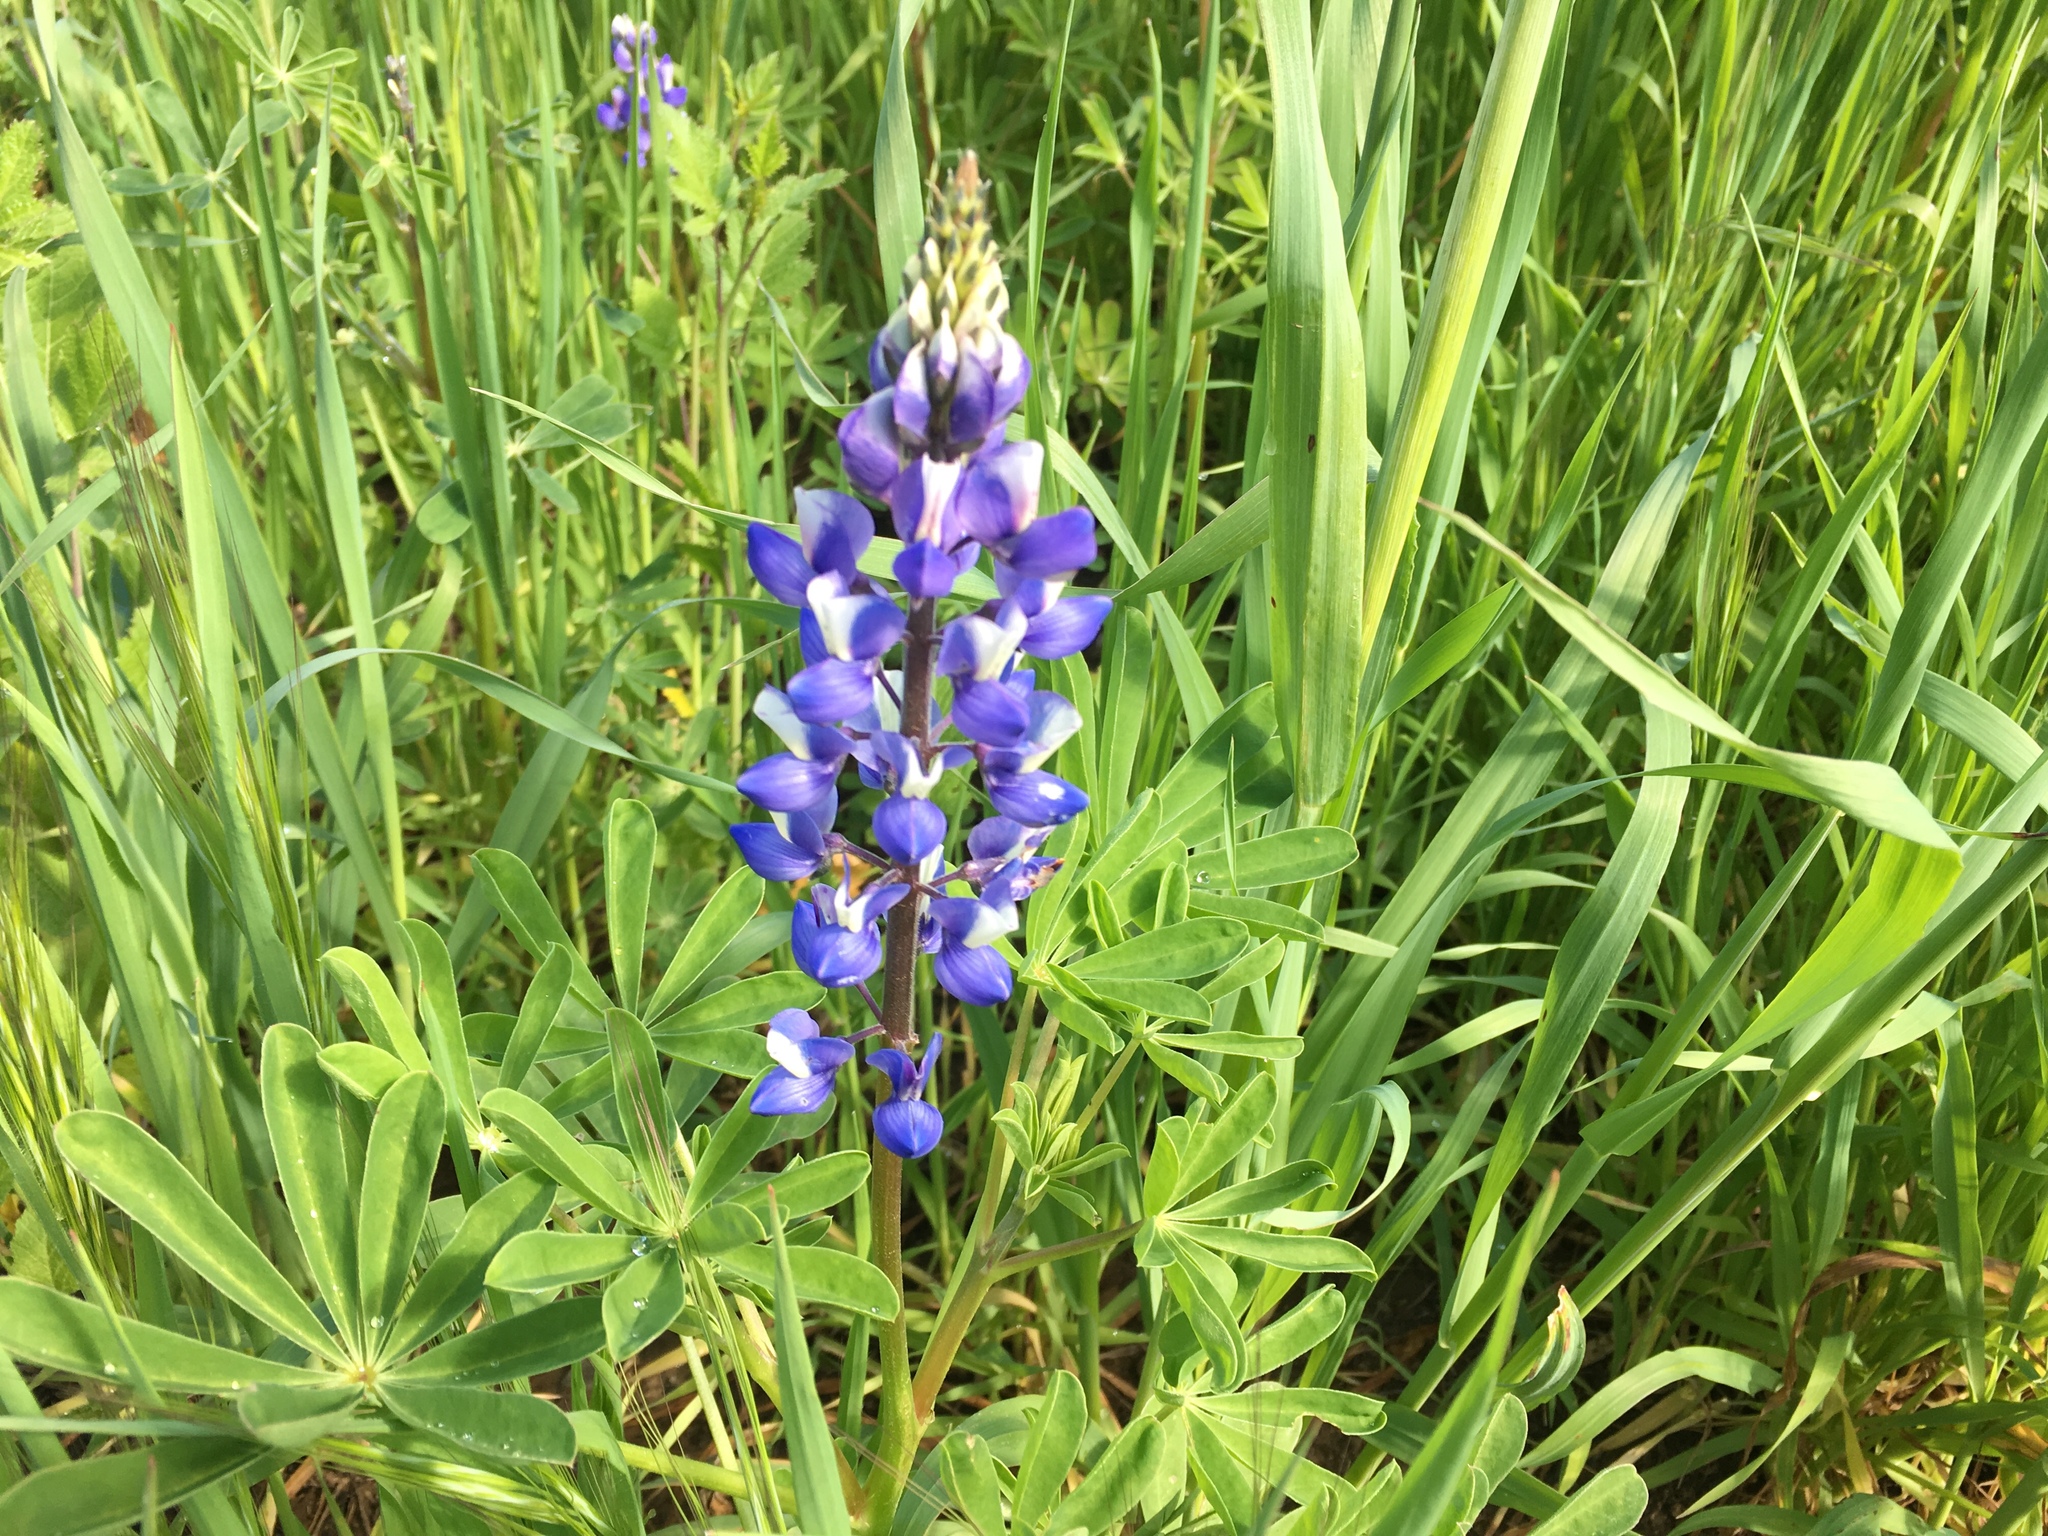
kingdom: Plantae
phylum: Tracheophyta
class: Magnoliopsida
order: Fabales
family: Fabaceae
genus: Lupinus
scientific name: Lupinus succulentus
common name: Arroyo lupine
